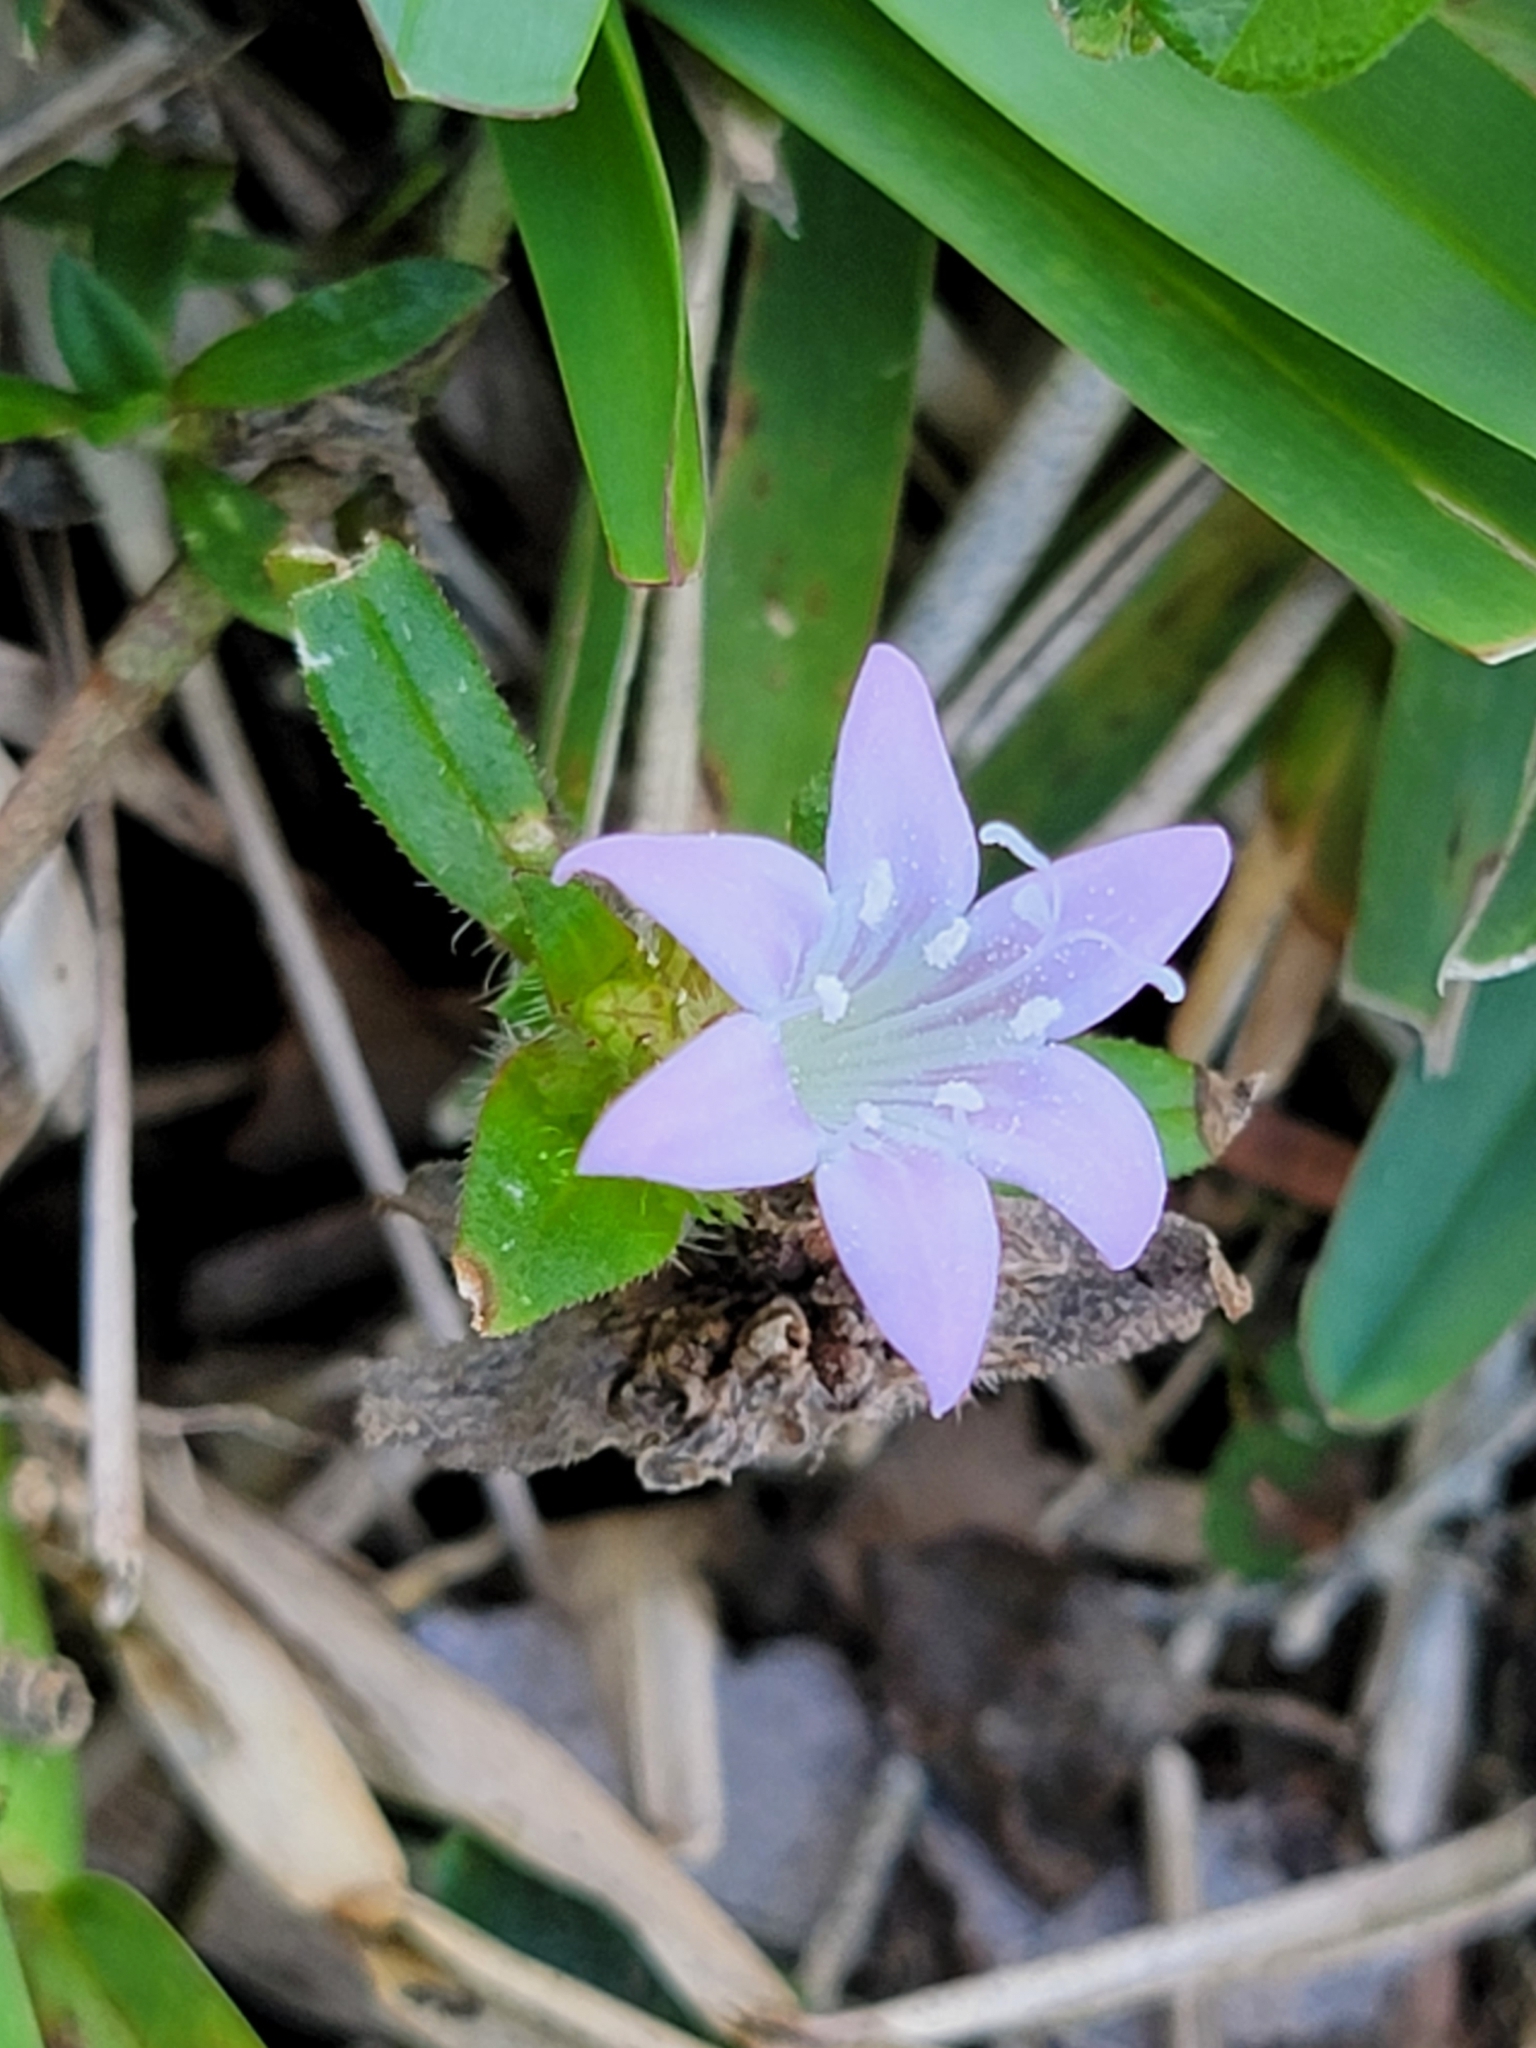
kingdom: Plantae
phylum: Tracheophyta
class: Magnoliopsida
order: Gentianales
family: Rubiaceae
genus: Richardia
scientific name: Richardia grandiflora
